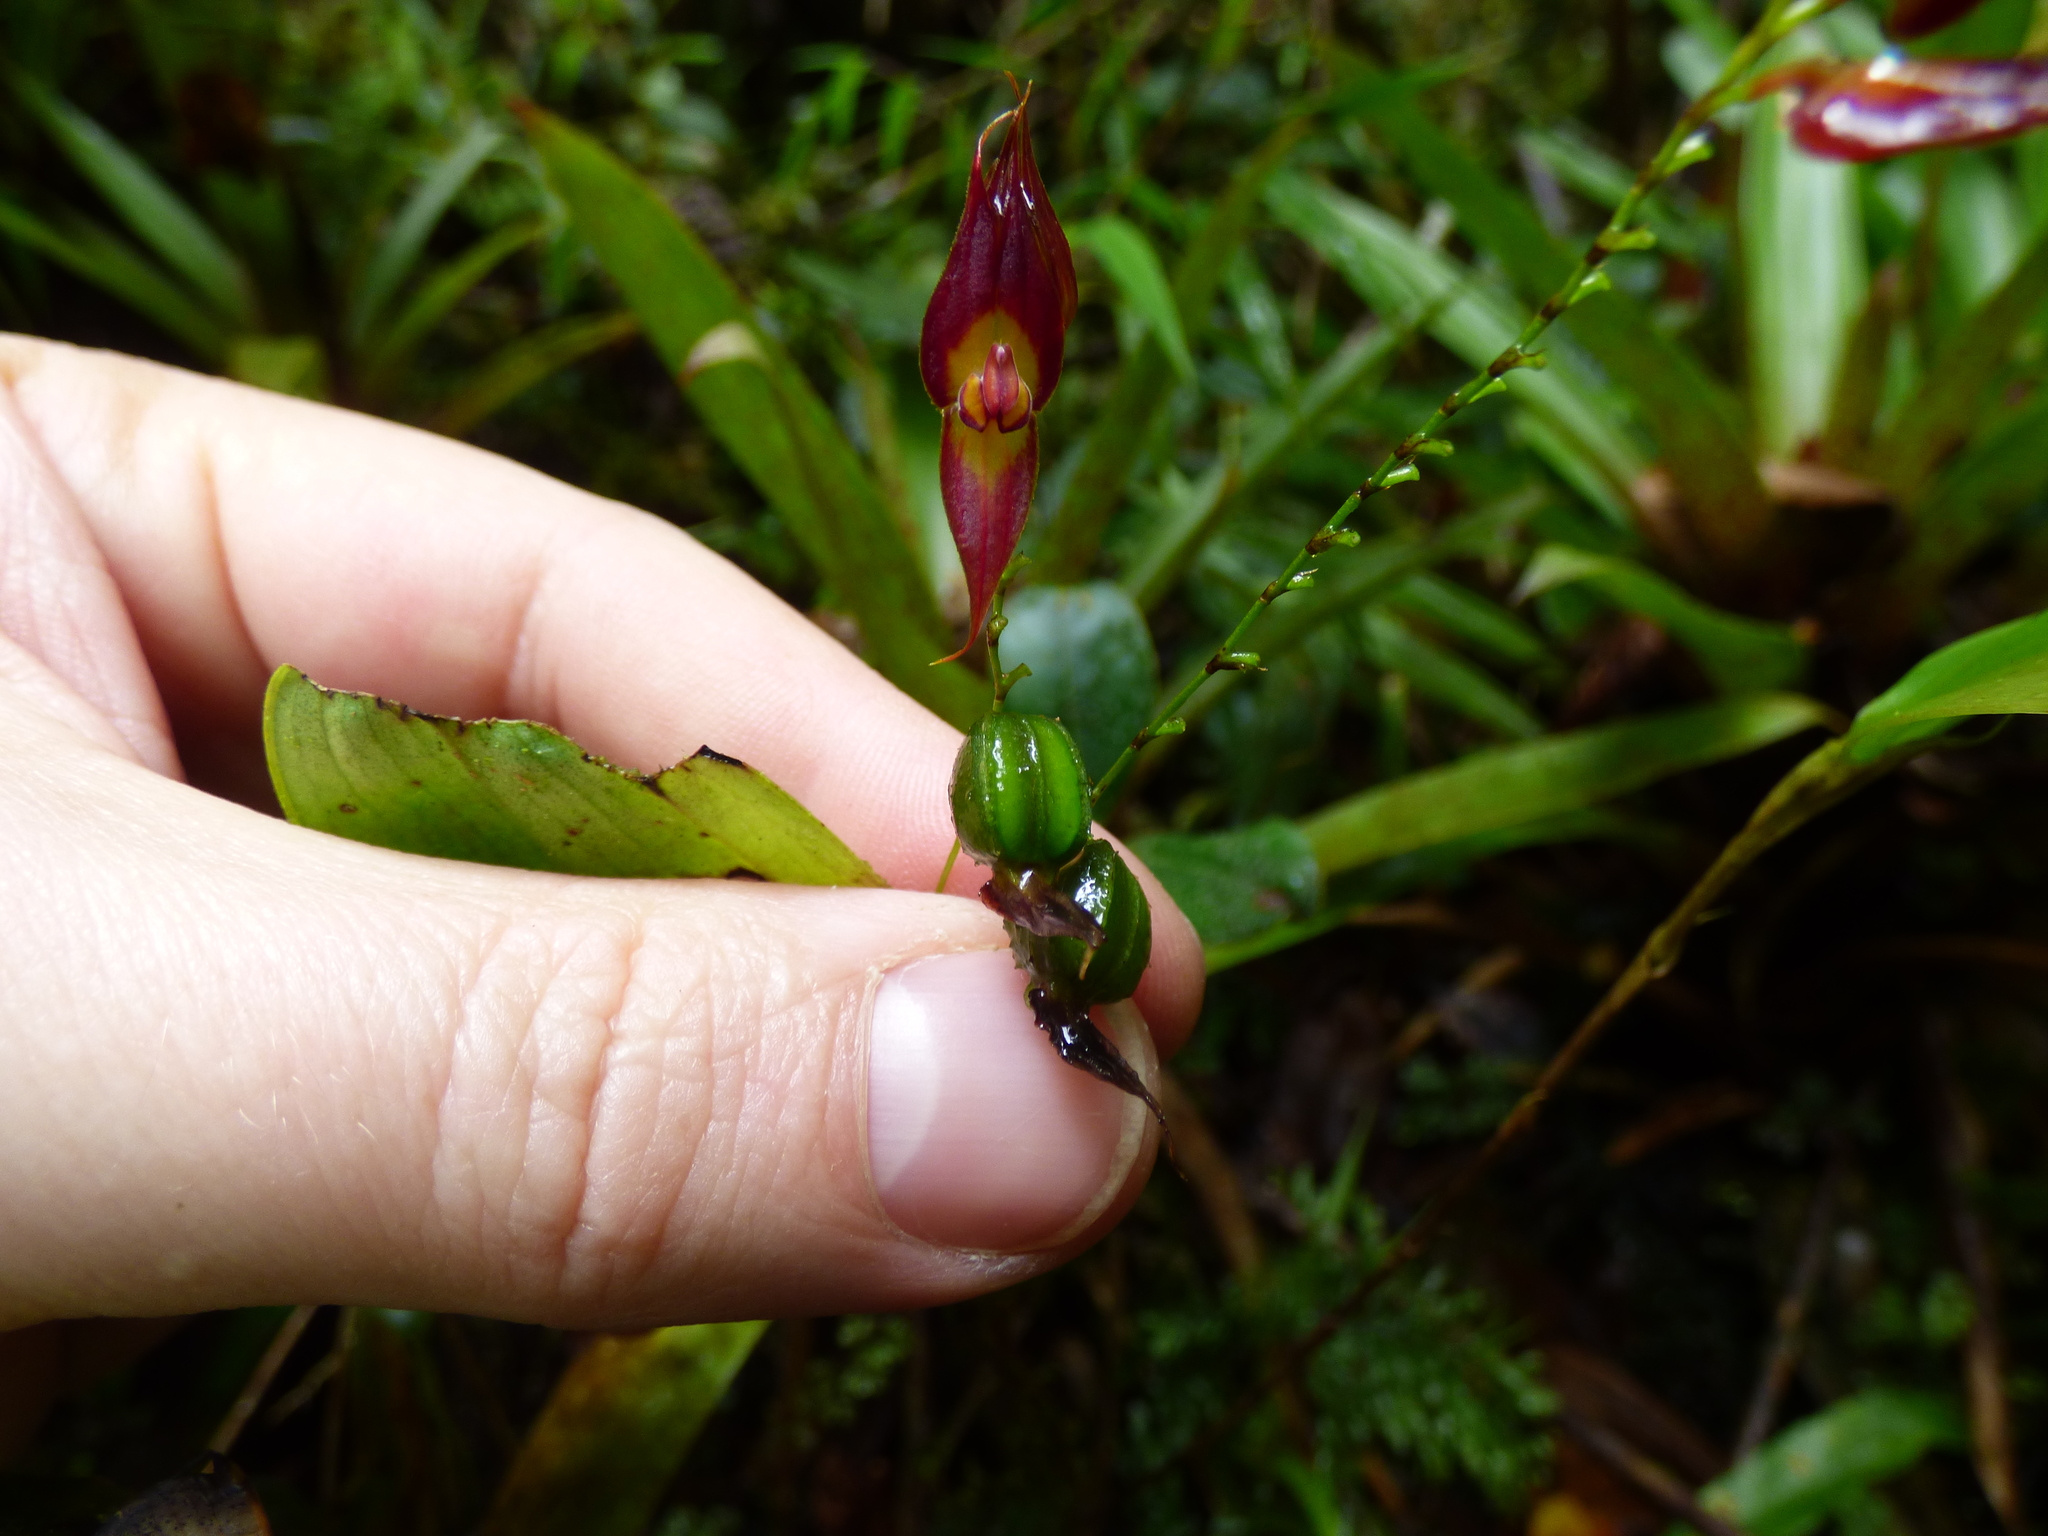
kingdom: Plantae
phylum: Tracheophyta
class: Liliopsida
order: Asparagales
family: Orchidaceae
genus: Lepanthes
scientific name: Lepanthes rhombipetala
